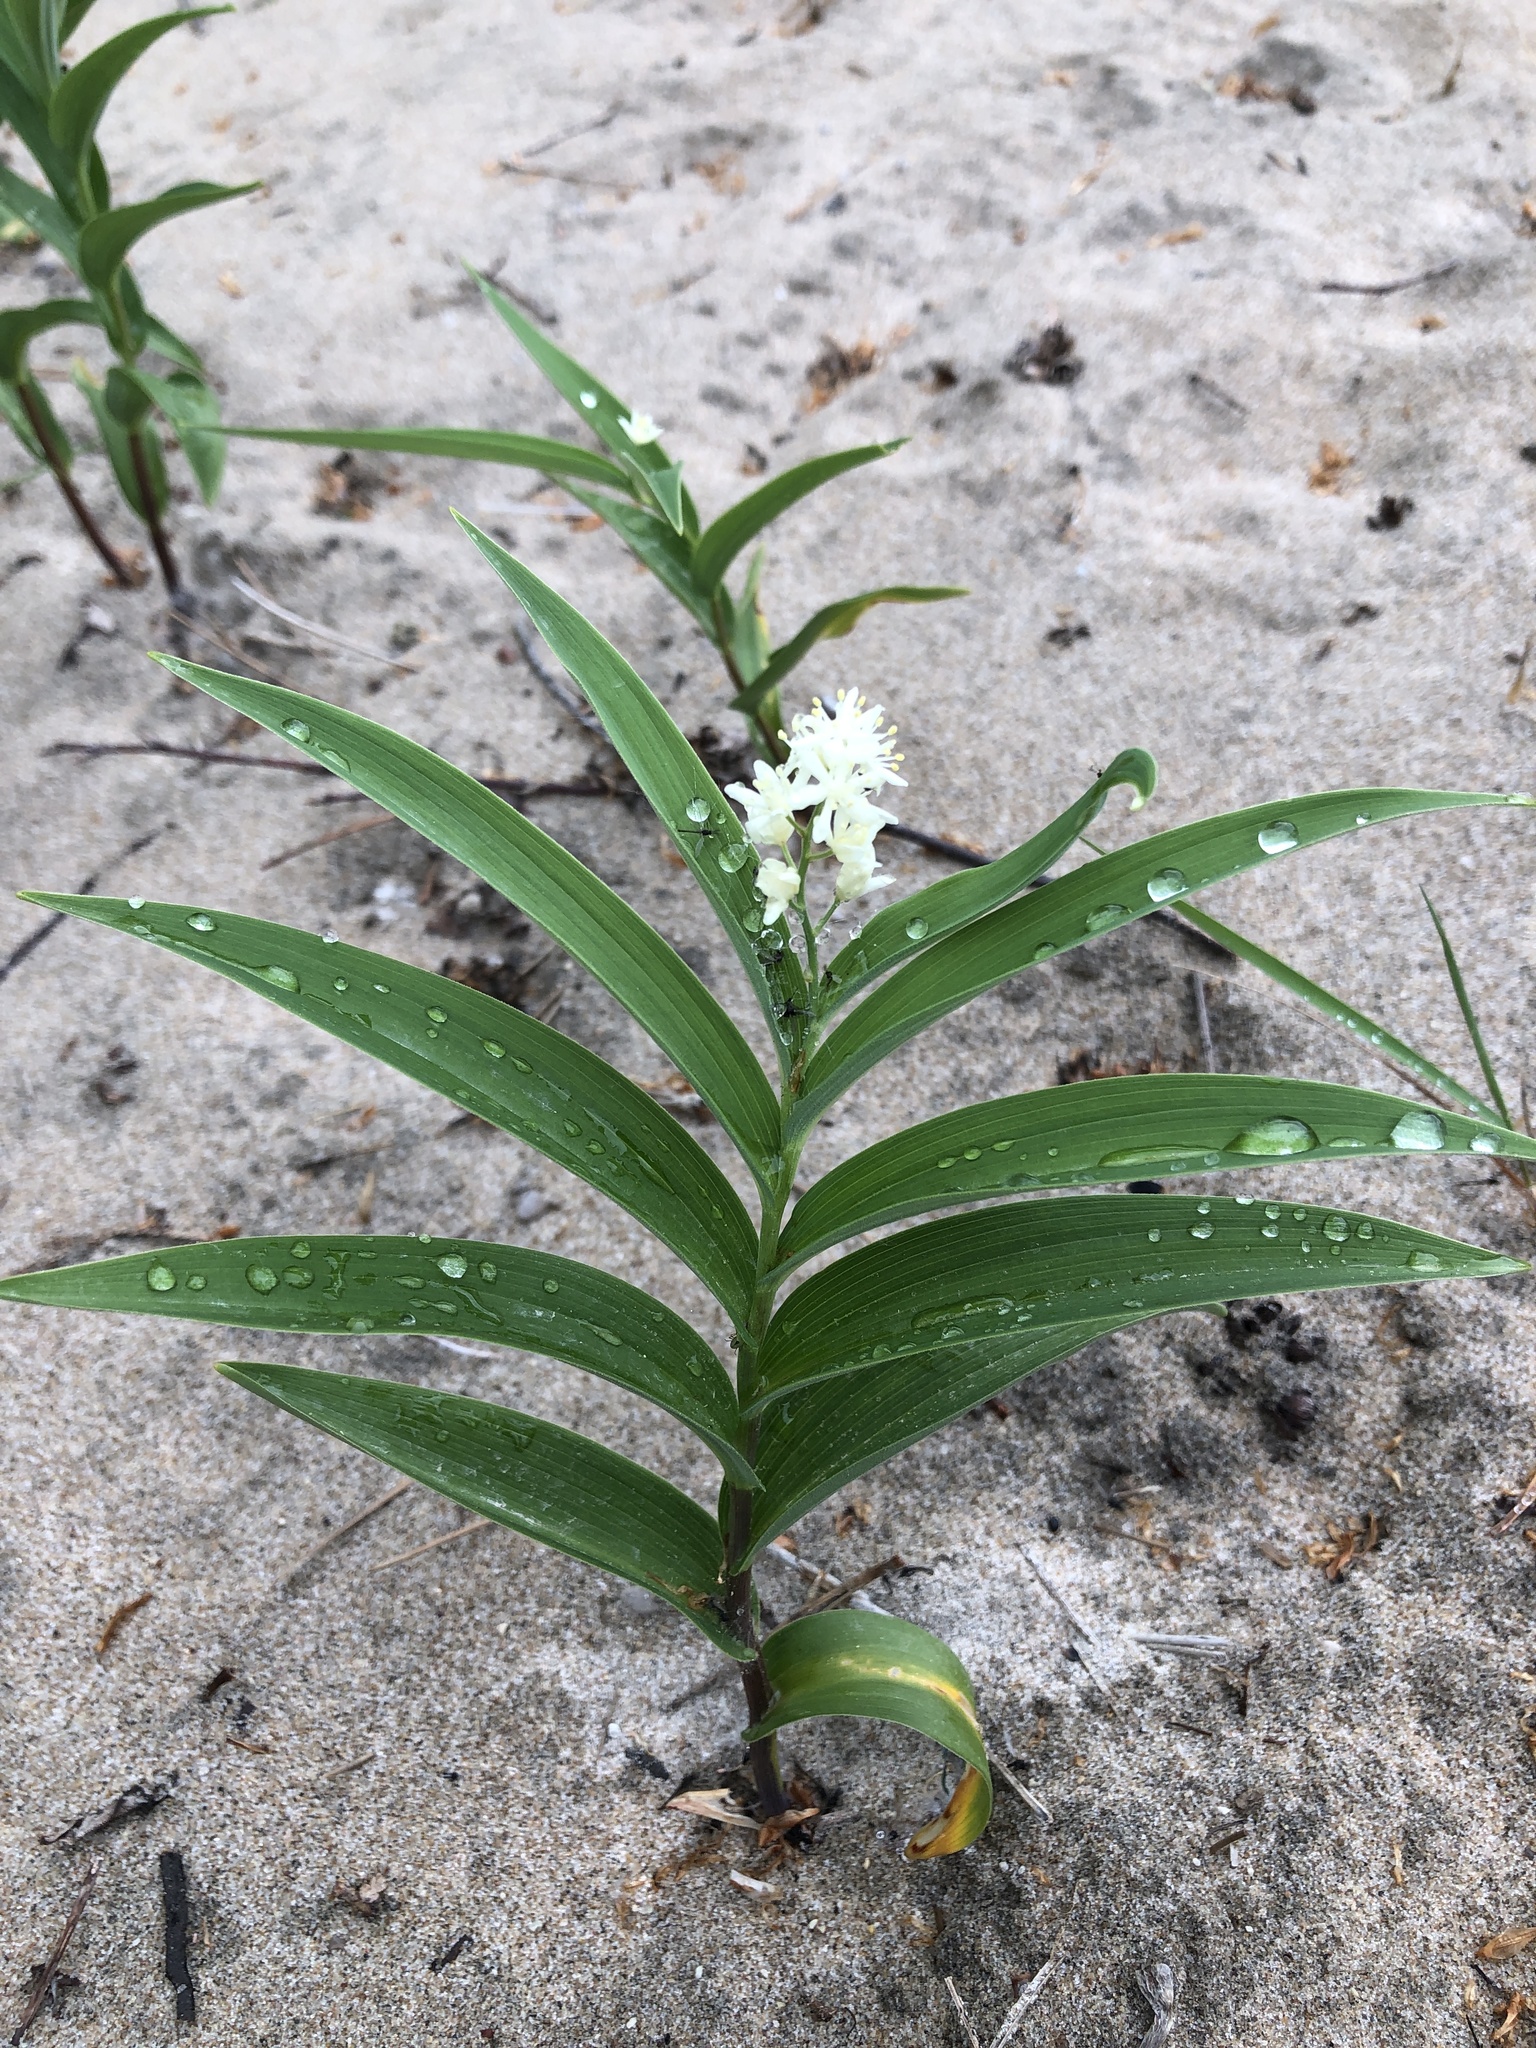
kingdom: Plantae
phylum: Tracheophyta
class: Liliopsida
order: Asparagales
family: Asparagaceae
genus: Maianthemum
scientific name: Maianthemum stellatum
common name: Little false solomon's seal
